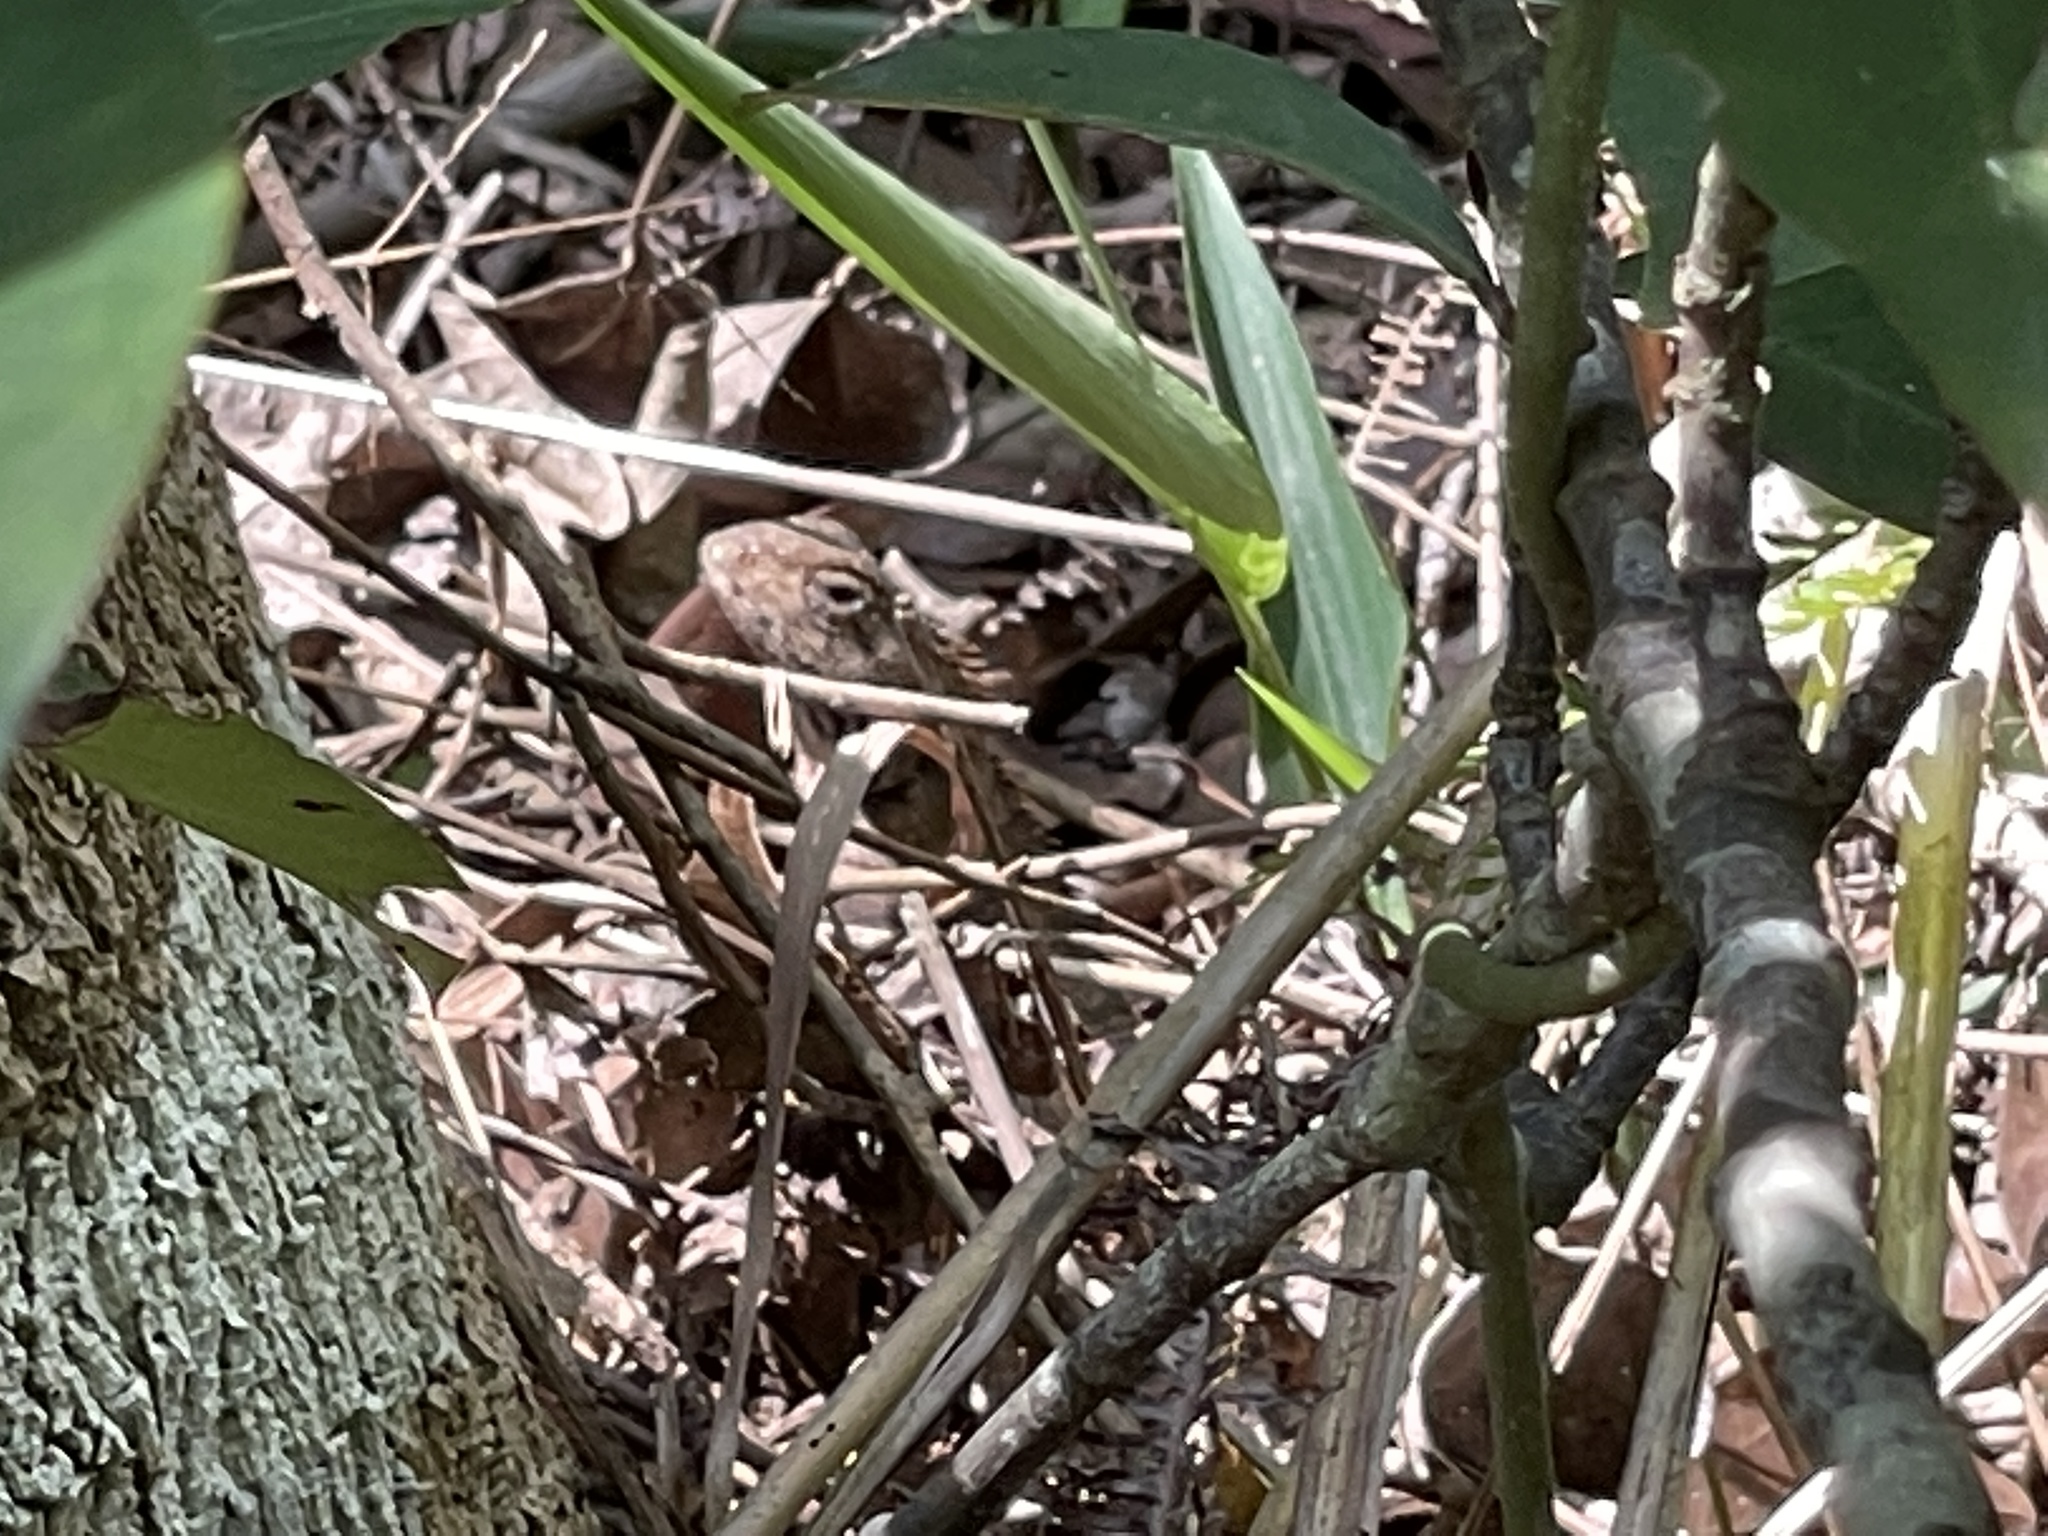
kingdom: Animalia
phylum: Chordata
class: Squamata
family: Agamidae
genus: Calotes
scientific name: Calotes versicolor
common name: Oriental garden lizard
